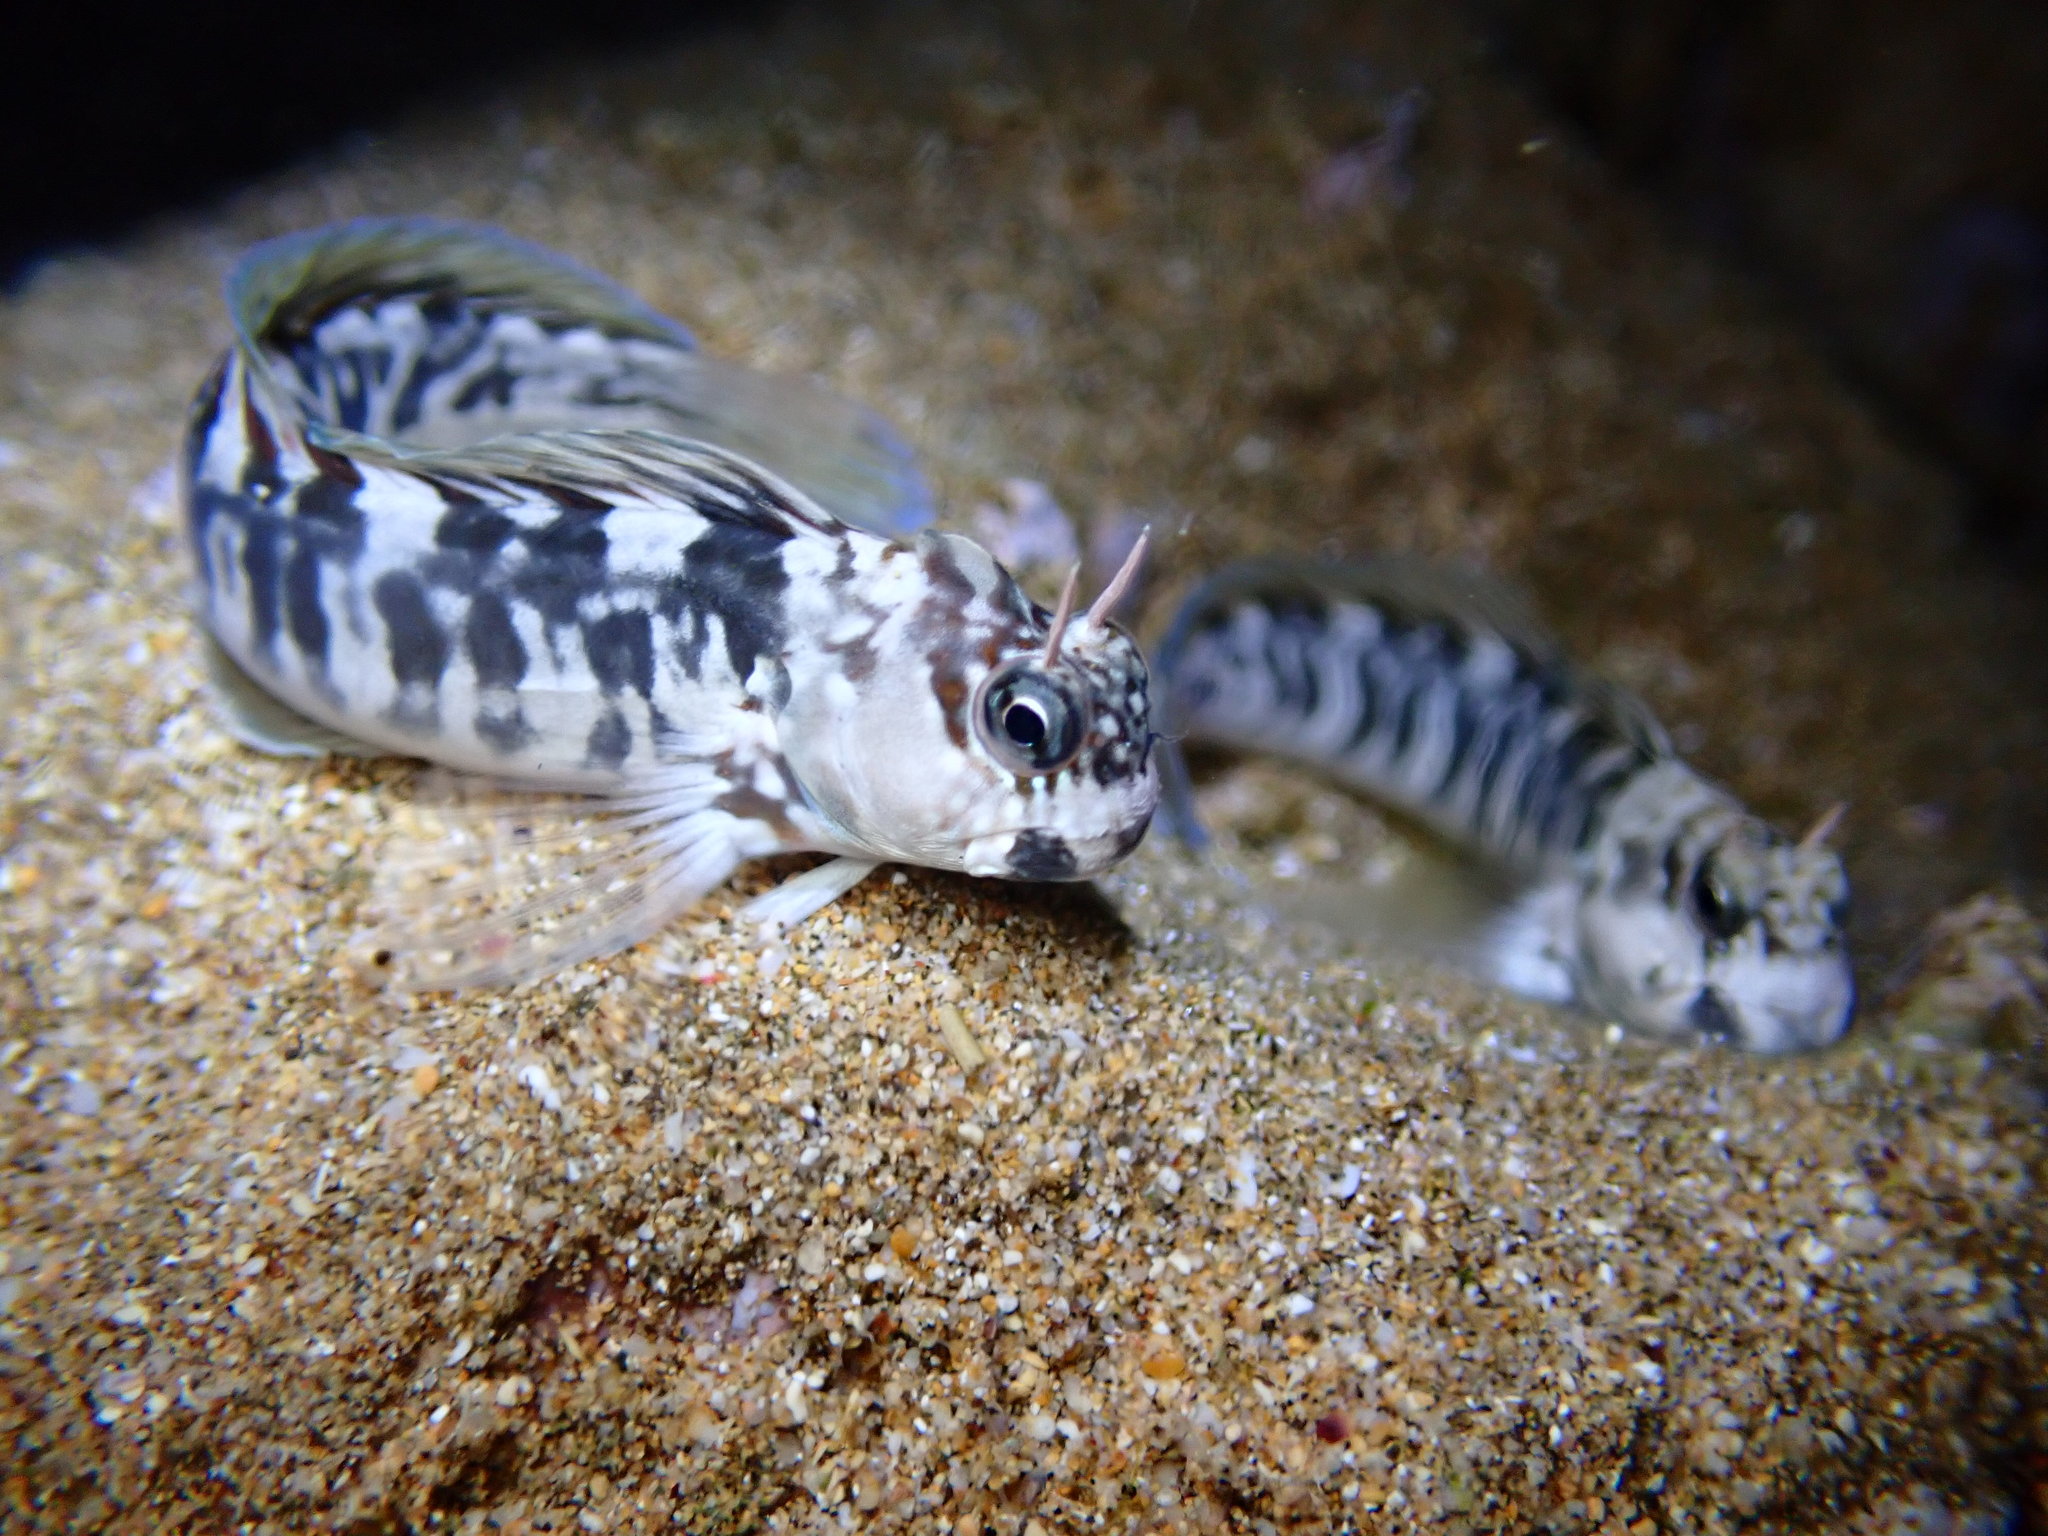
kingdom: Animalia
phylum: Chordata
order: Perciformes
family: Blenniidae
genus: Istiblennius
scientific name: Istiblennius zebra
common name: Zebra blenny
